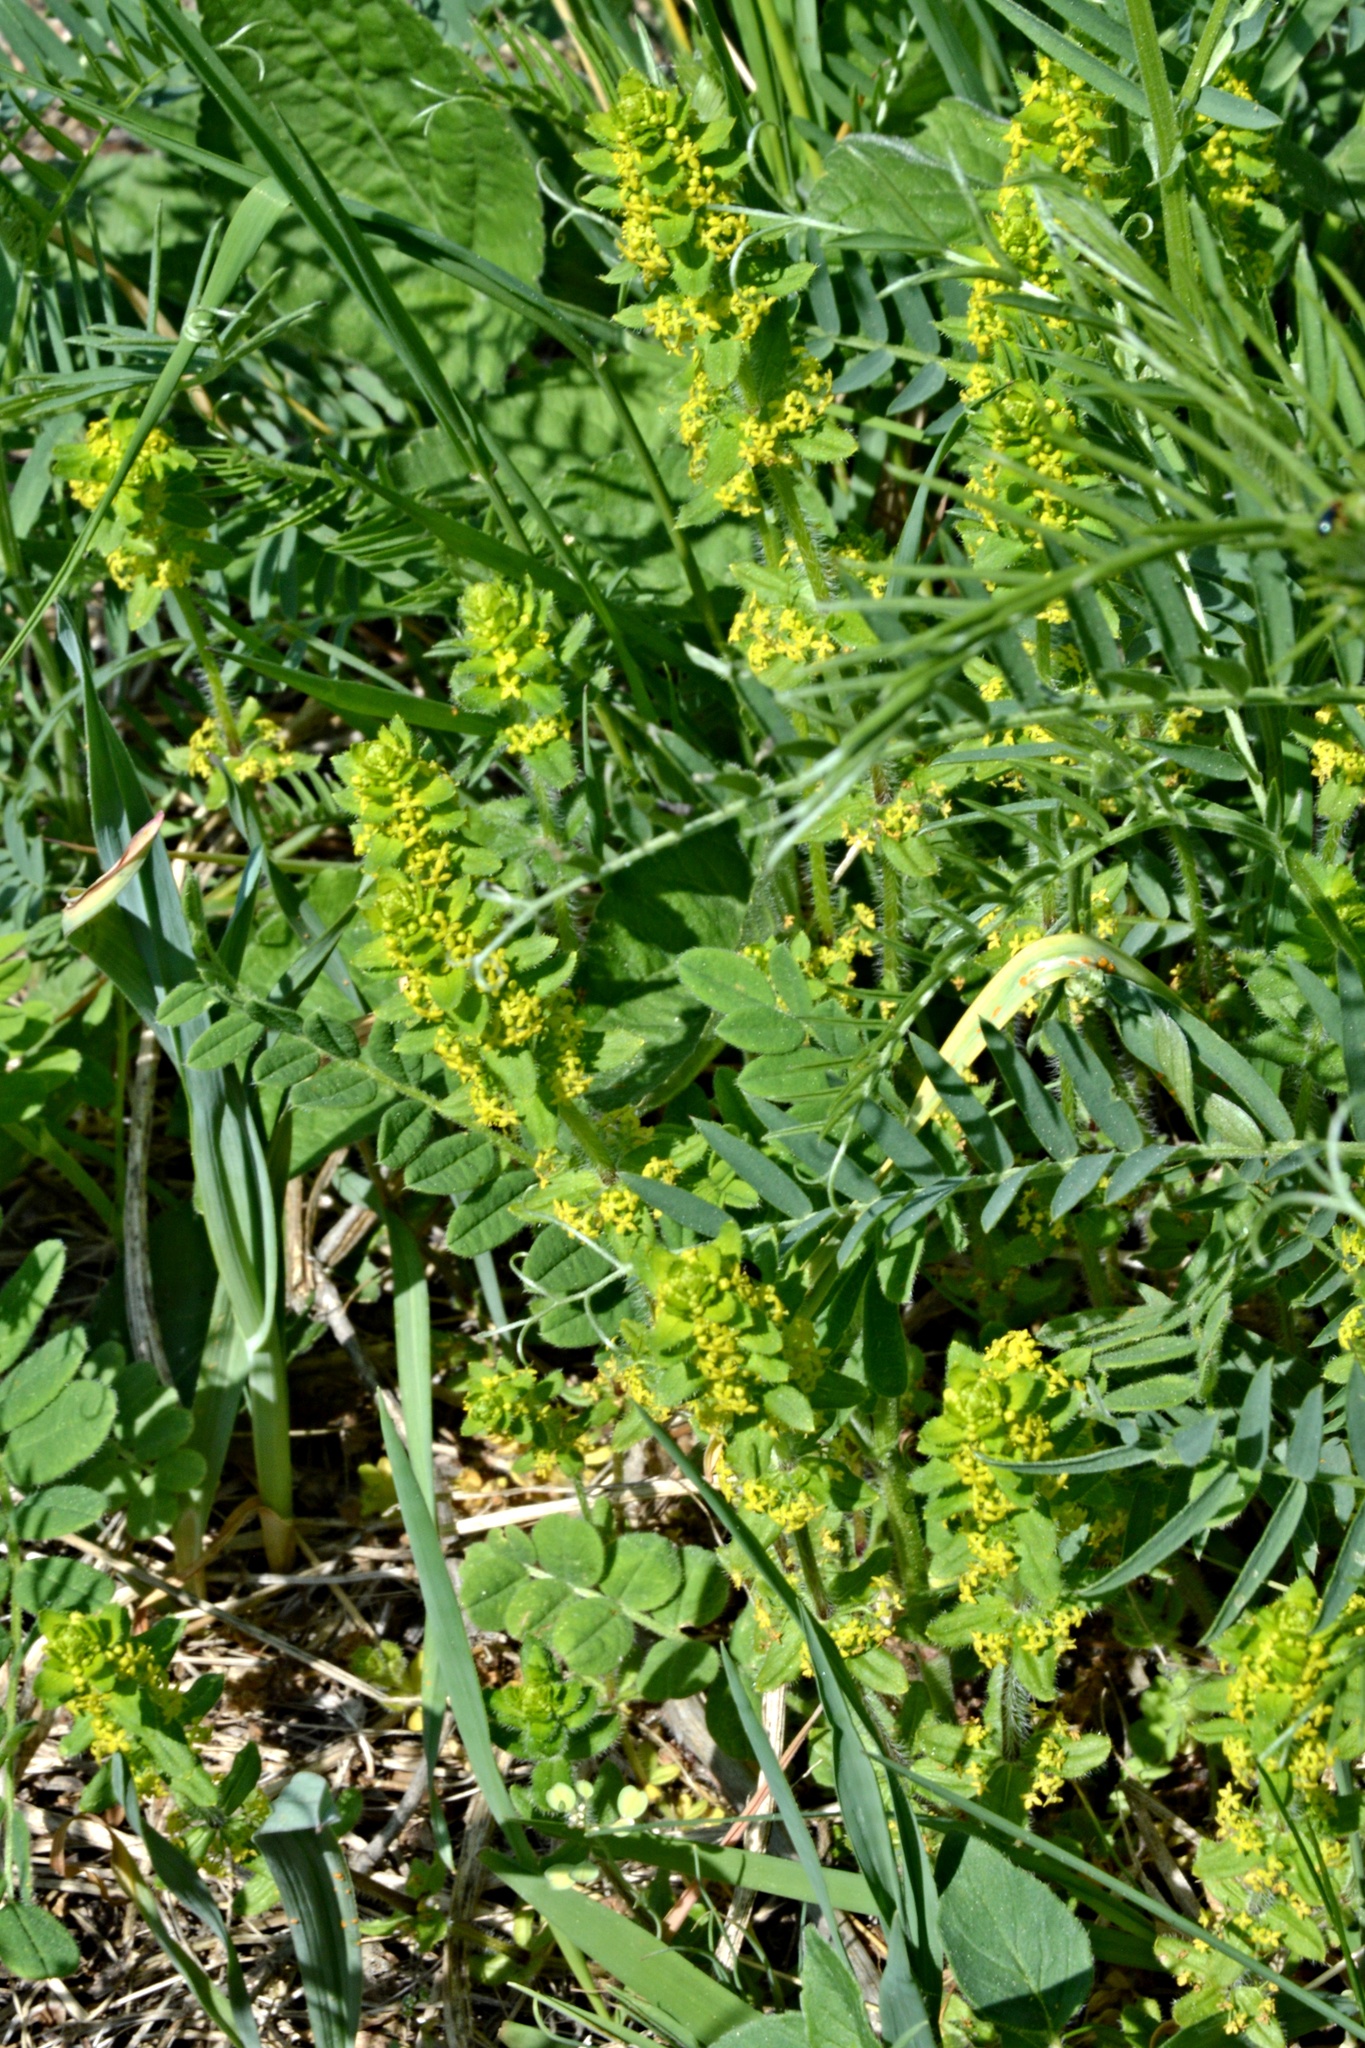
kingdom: Plantae
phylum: Tracheophyta
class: Magnoliopsida
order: Gentianales
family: Rubiaceae
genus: Cruciata
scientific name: Cruciata laevipes
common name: Crosswort
